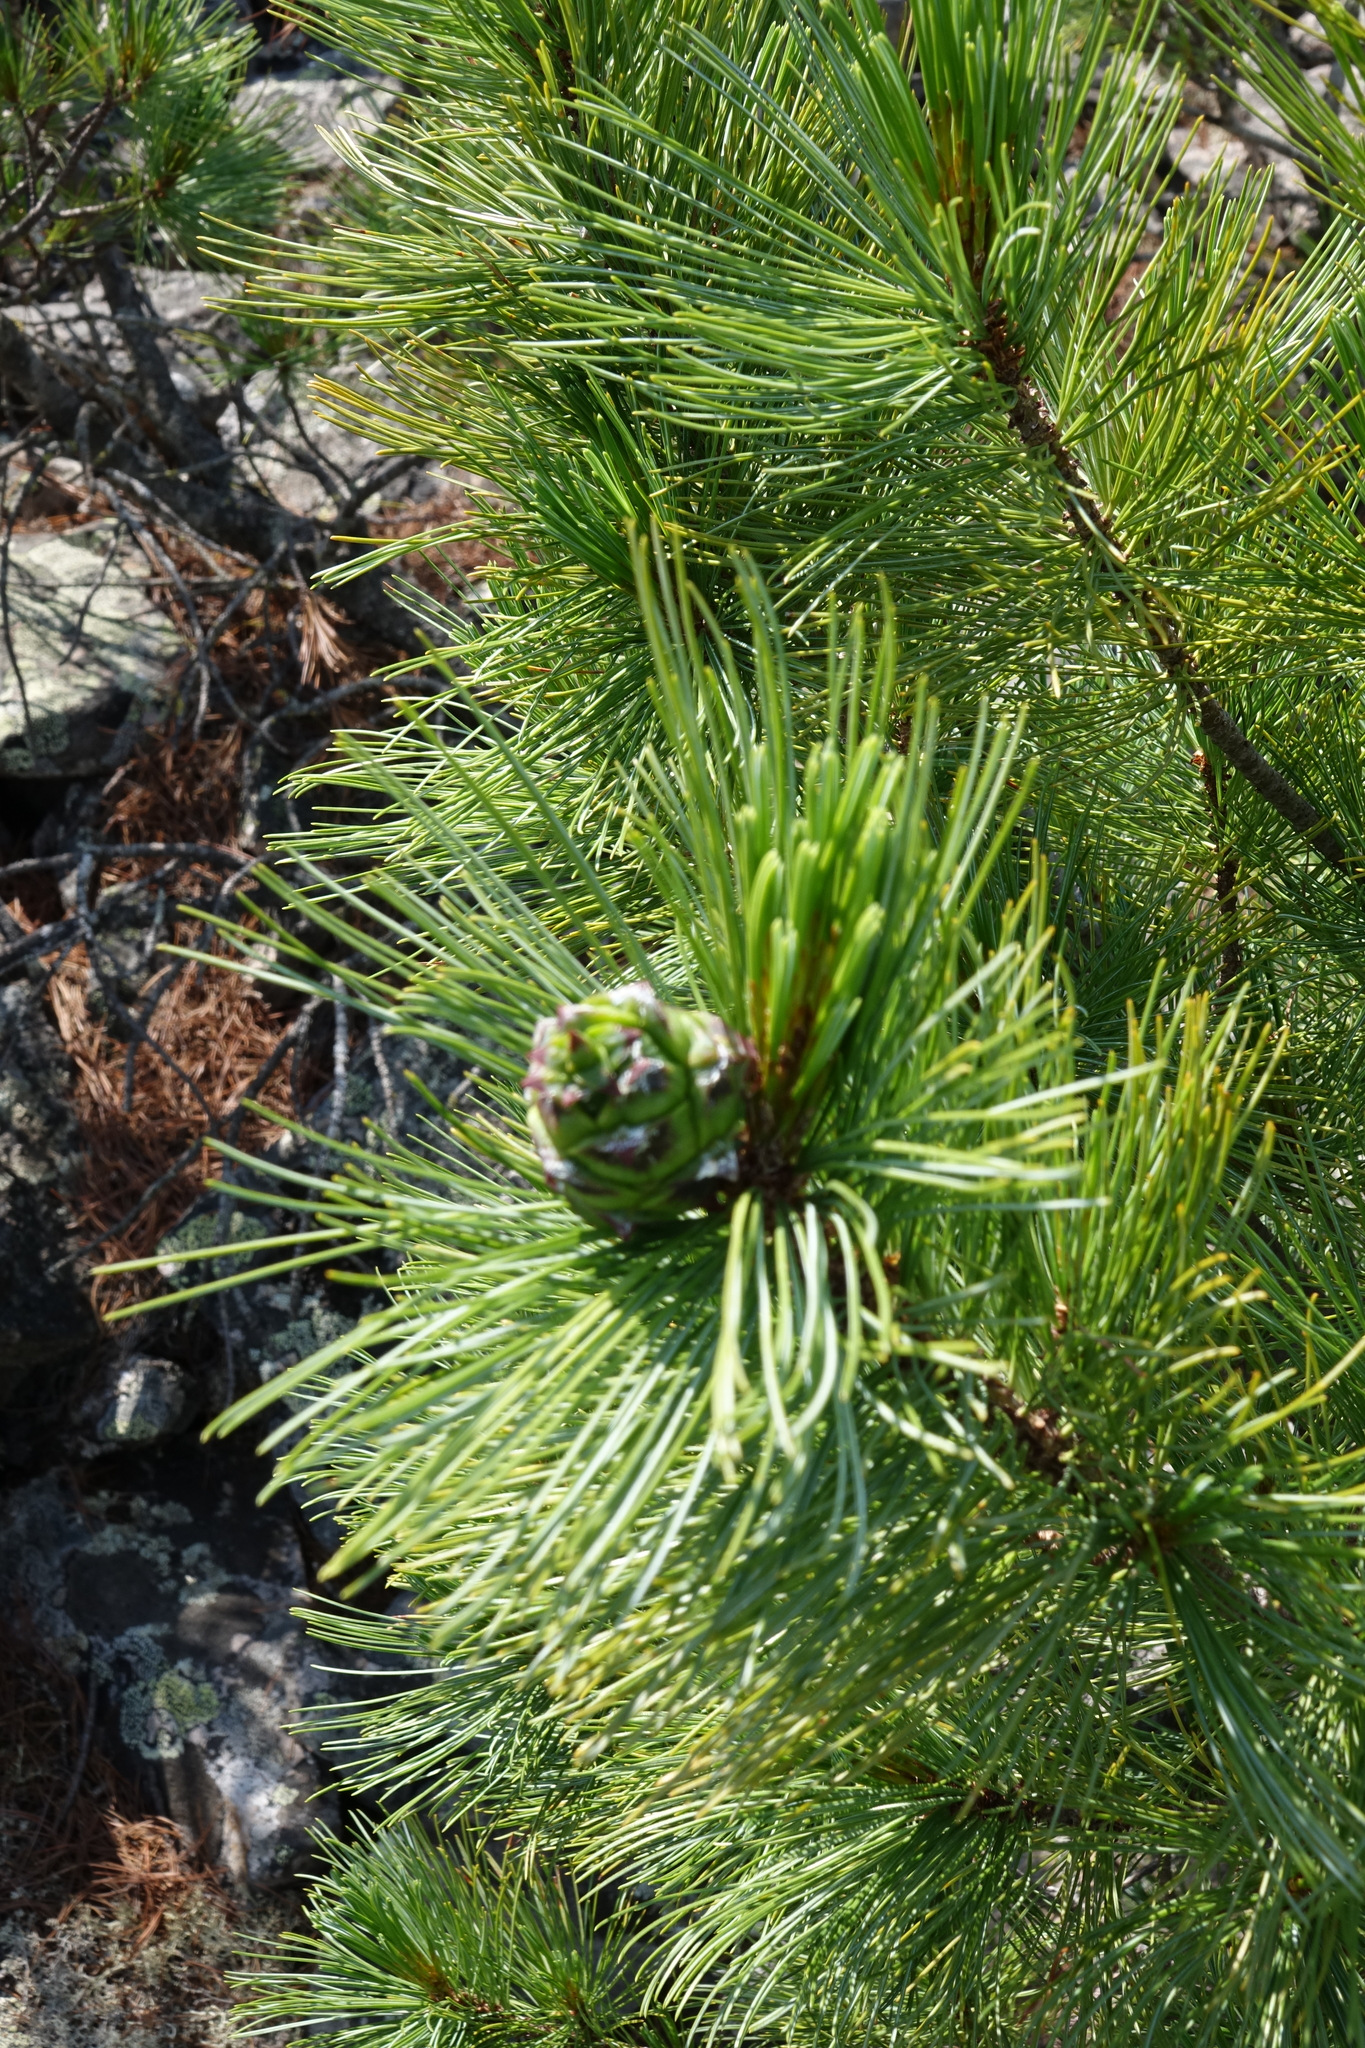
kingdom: Plantae
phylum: Tracheophyta
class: Pinopsida
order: Pinales
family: Pinaceae
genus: Pinus
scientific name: Pinus pumila
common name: Dwarf siberian pine
